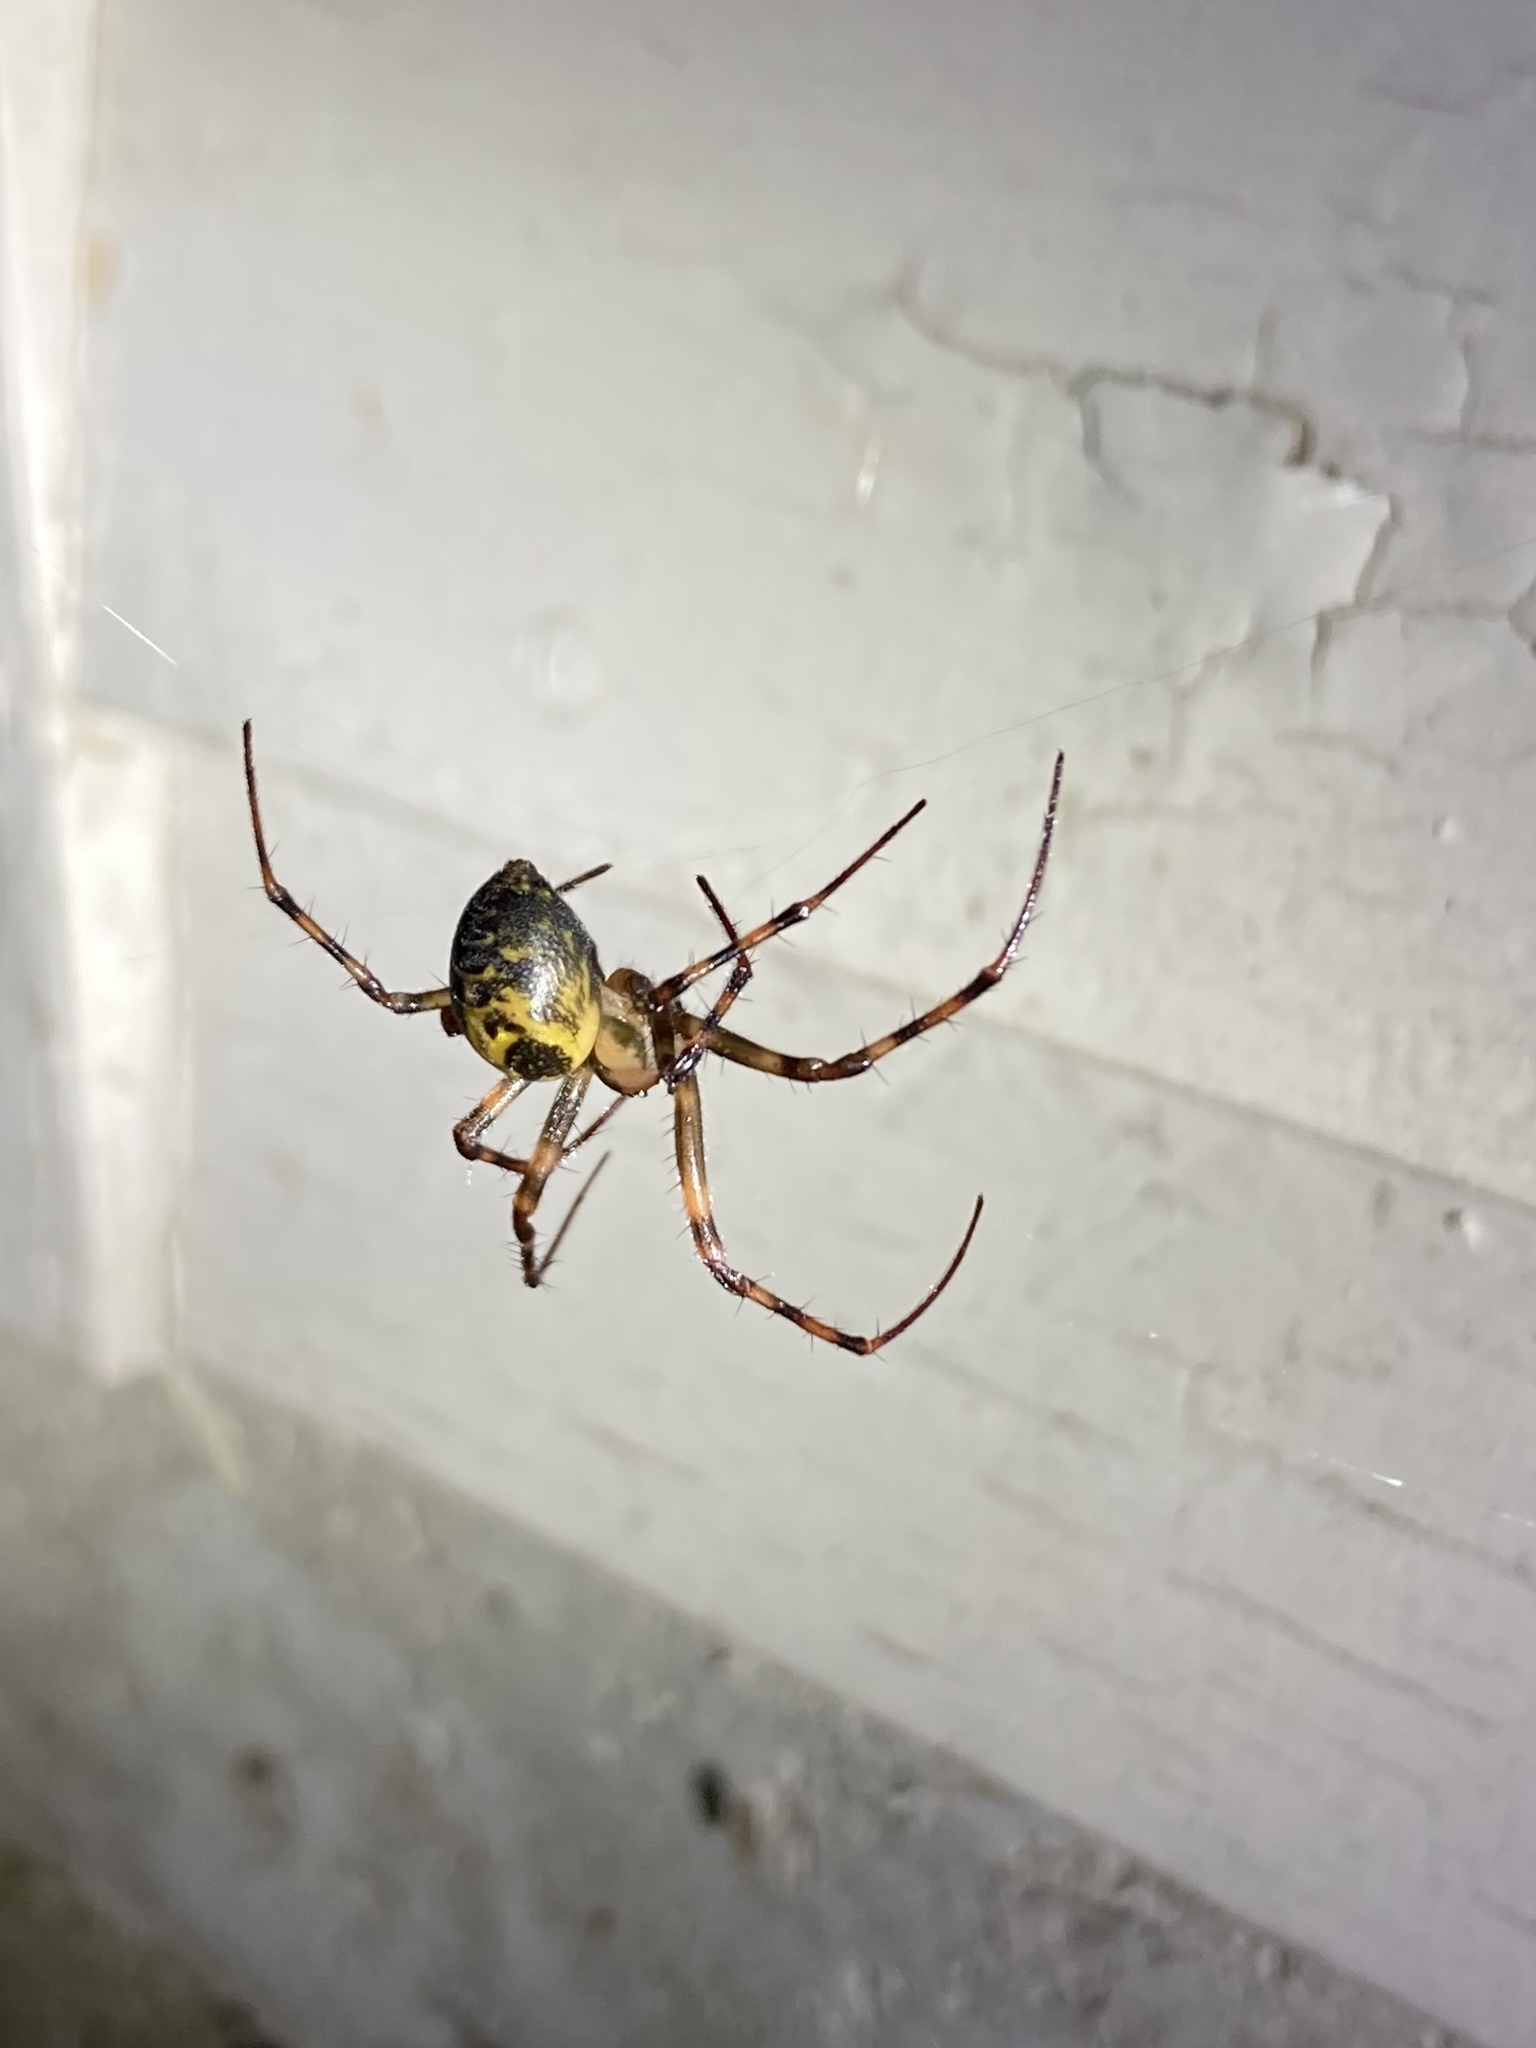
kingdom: Animalia
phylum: Arthropoda
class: Arachnida
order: Araneae
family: Tetragnathidae
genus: Meta
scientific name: Meta ovalis
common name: Eastern cave long-jawed spider
